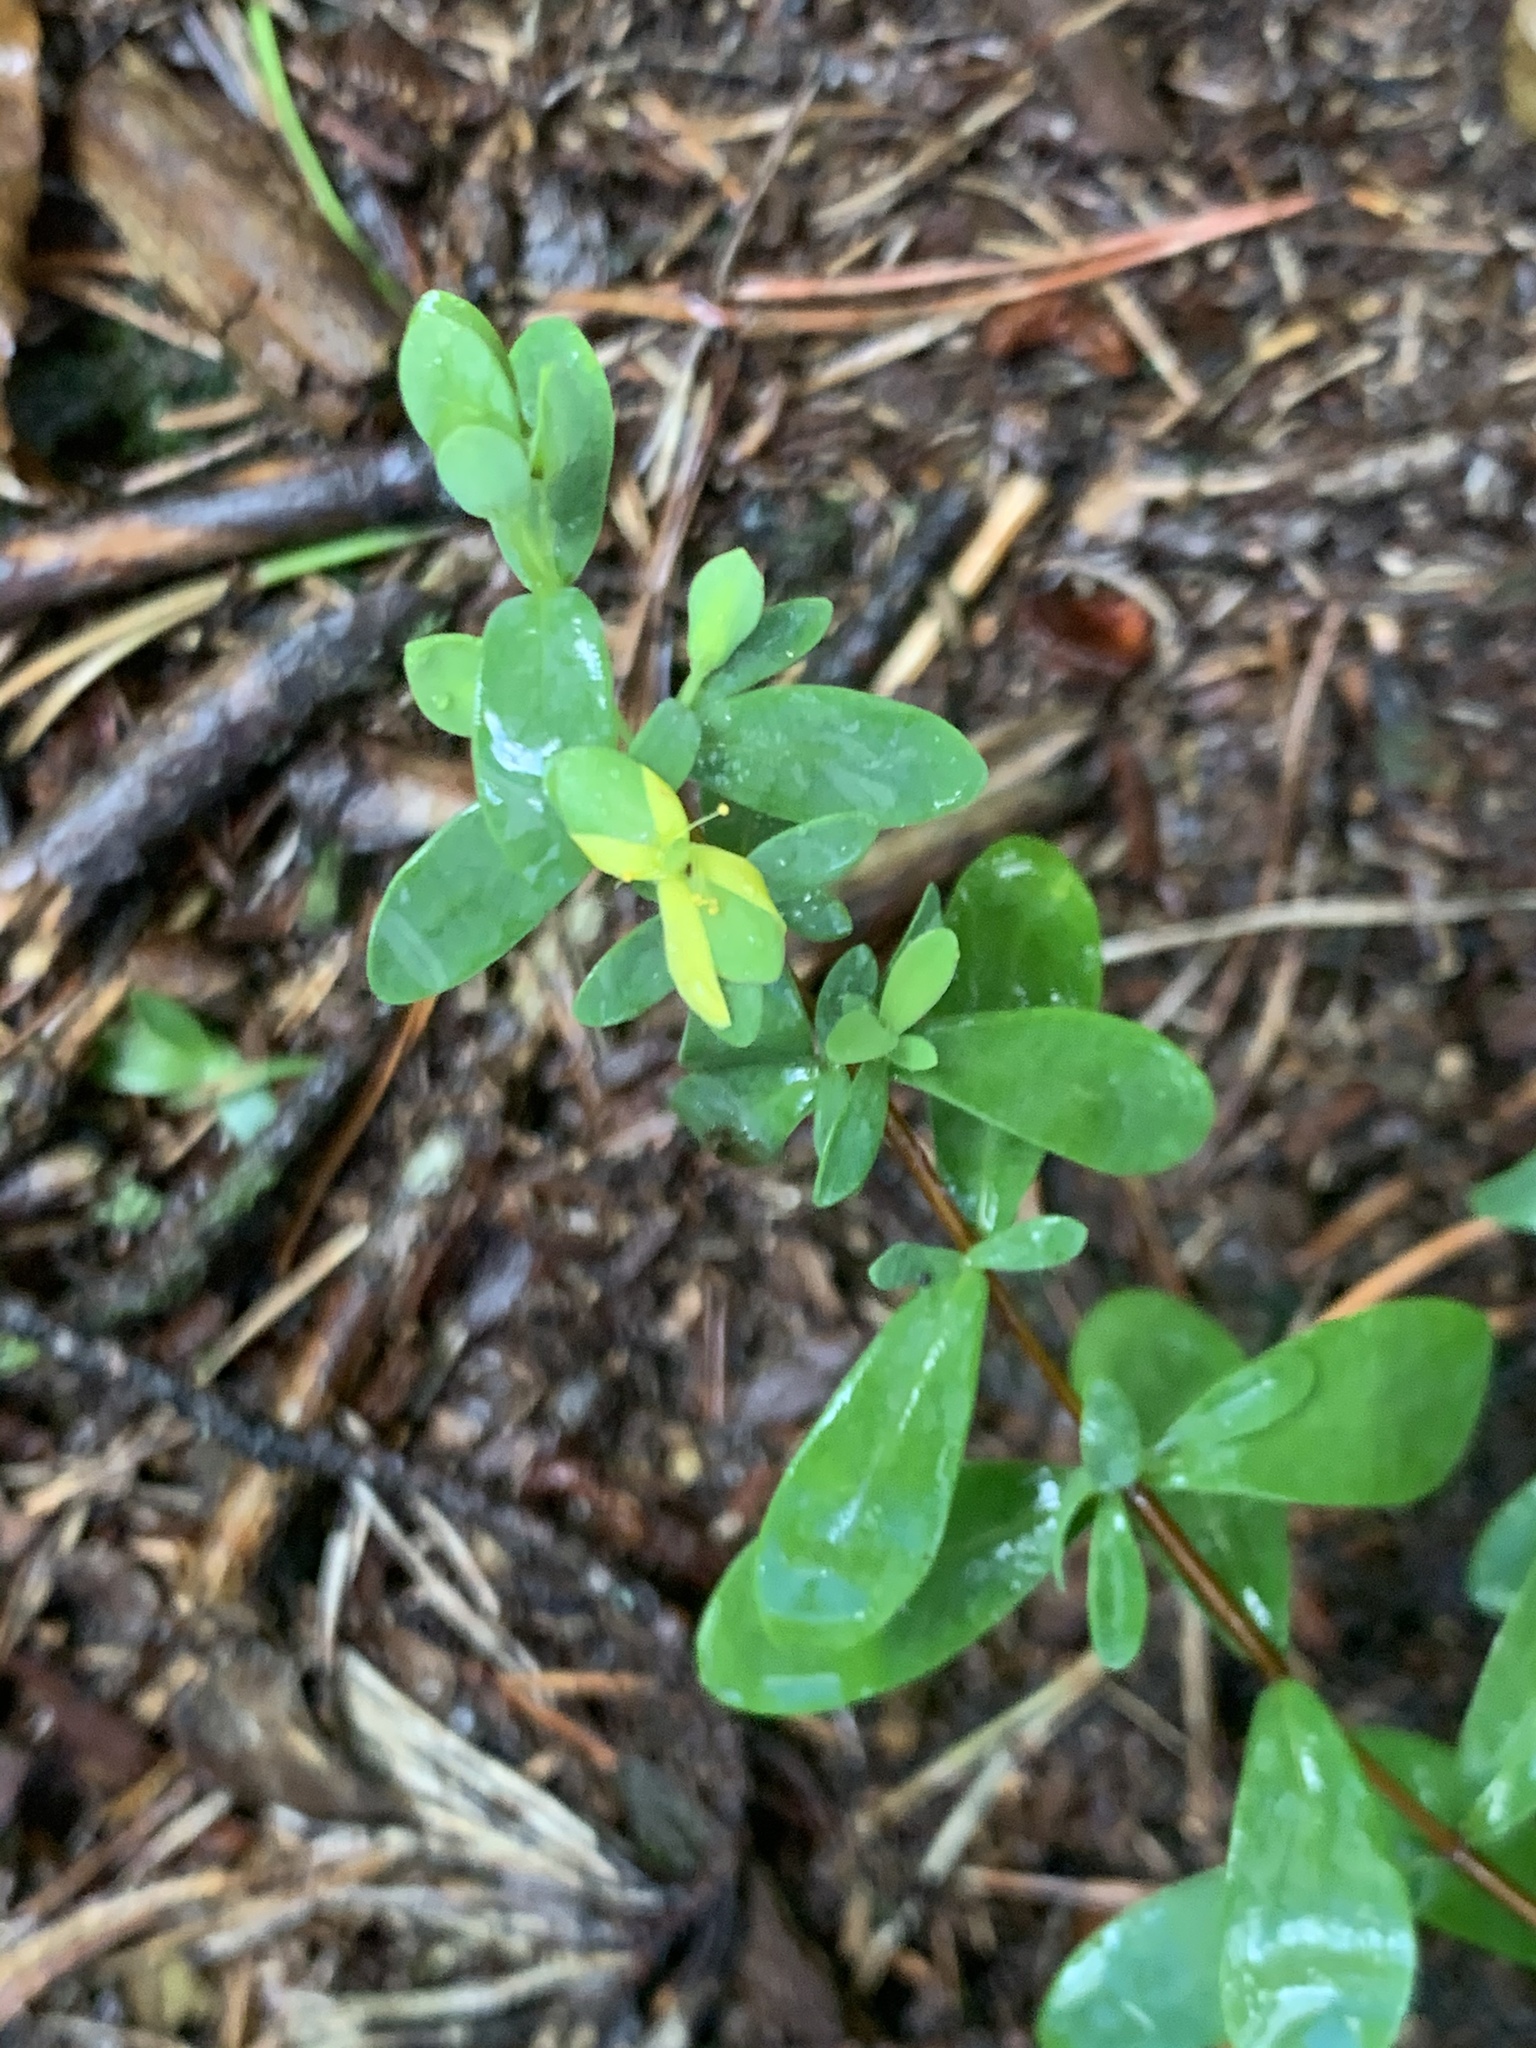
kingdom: Plantae
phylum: Tracheophyta
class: Magnoliopsida
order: Malpighiales
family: Hypericaceae
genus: Hypericum
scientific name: Hypericum hypericoides
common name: St. andrew's cross
